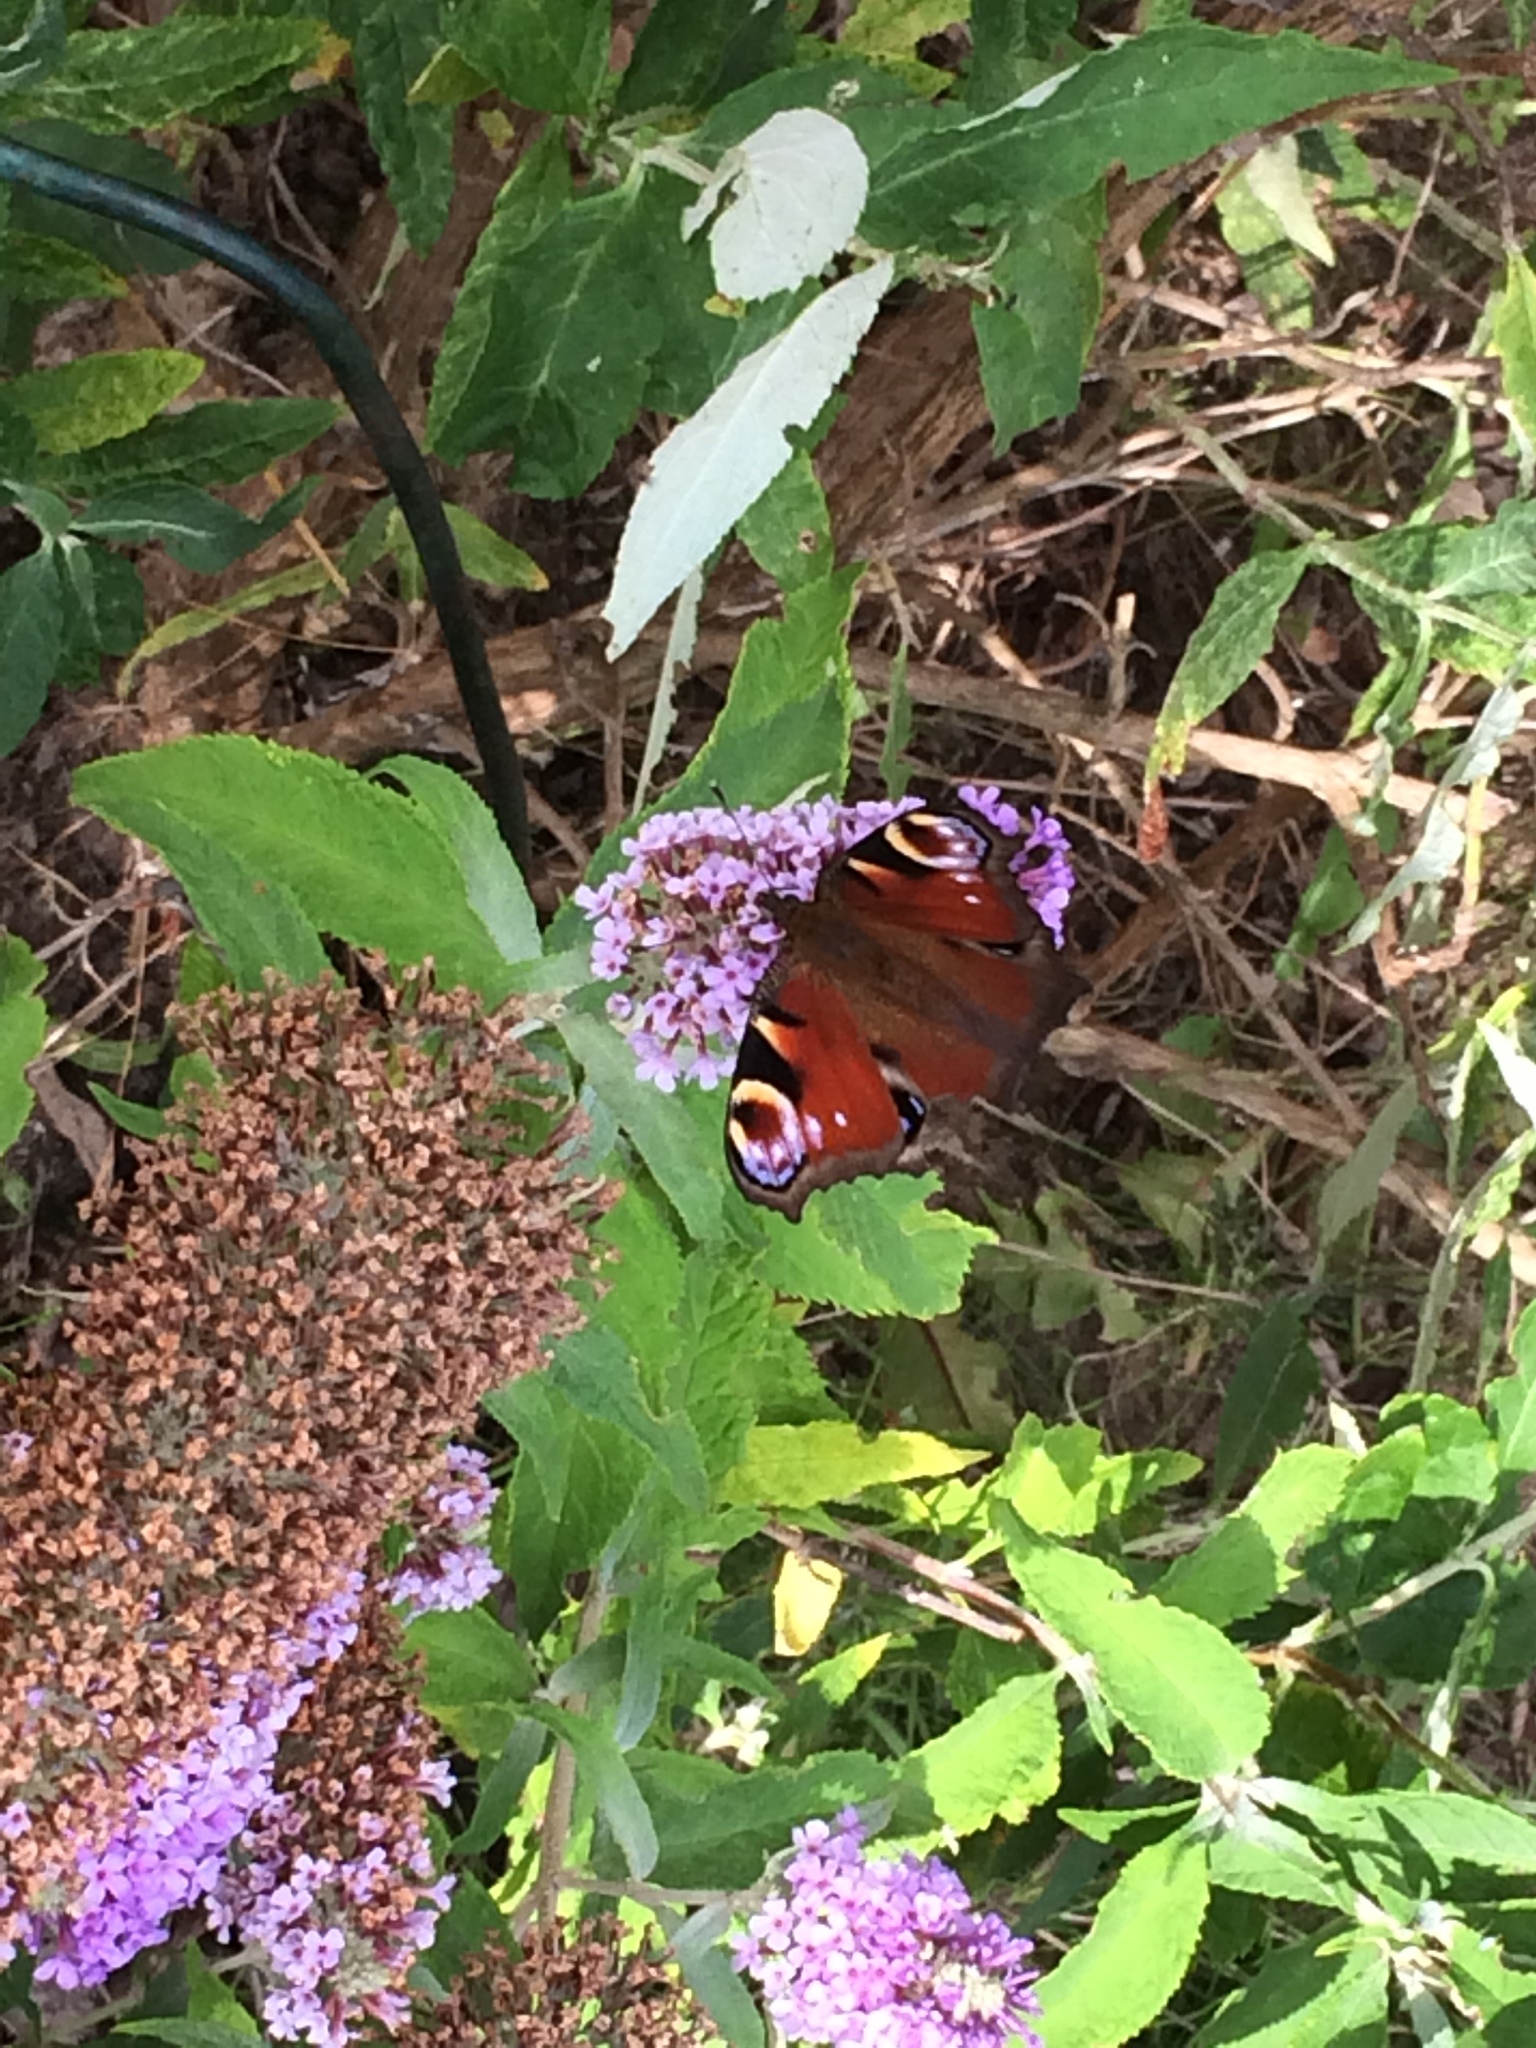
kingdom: Animalia
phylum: Arthropoda
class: Insecta
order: Lepidoptera
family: Nymphalidae
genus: Aglais
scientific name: Aglais io
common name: Peacock
